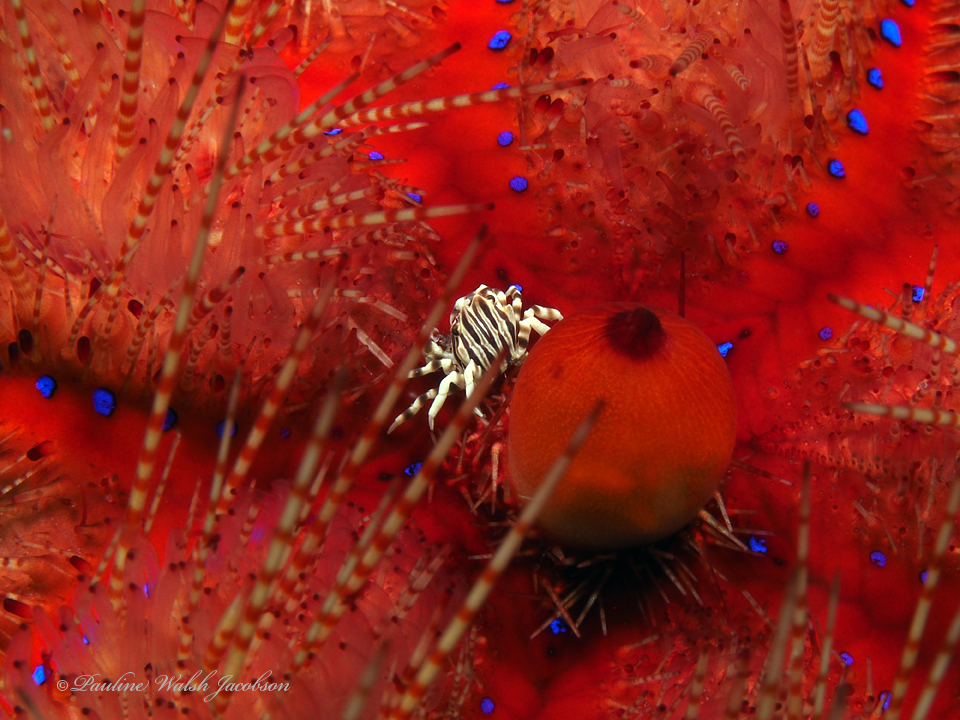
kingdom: Animalia
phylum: Arthropoda
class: Malacostraca
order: Decapoda
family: Pilumnidae
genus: Zebrida
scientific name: Zebrida adamsii
